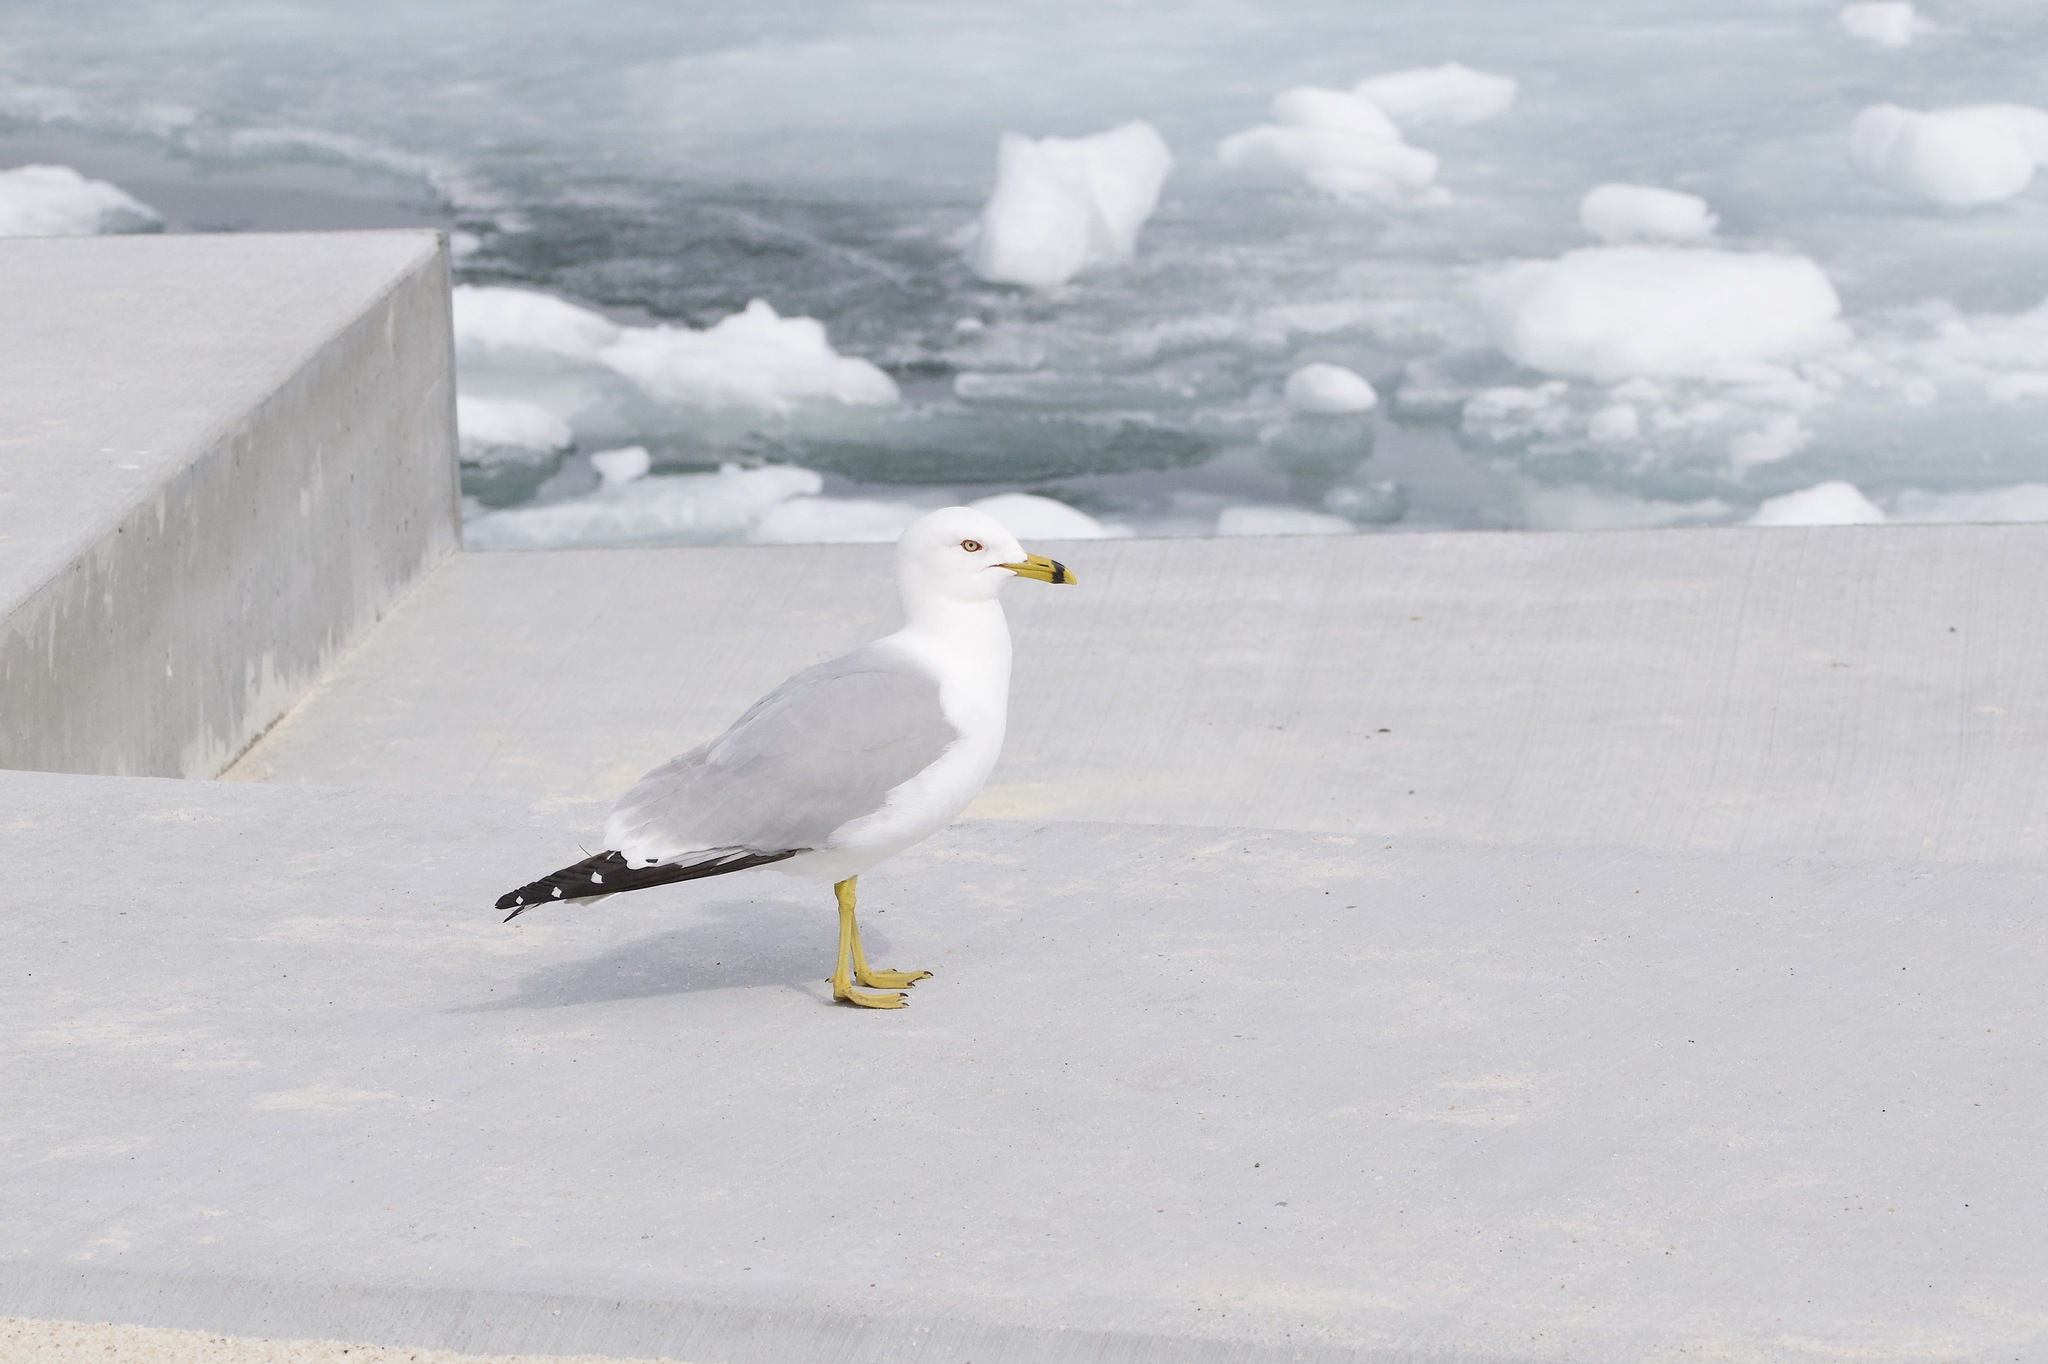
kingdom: Animalia
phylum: Chordata
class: Aves
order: Charadriiformes
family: Laridae
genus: Larus
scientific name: Larus delawarensis
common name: Ring-billed gull
